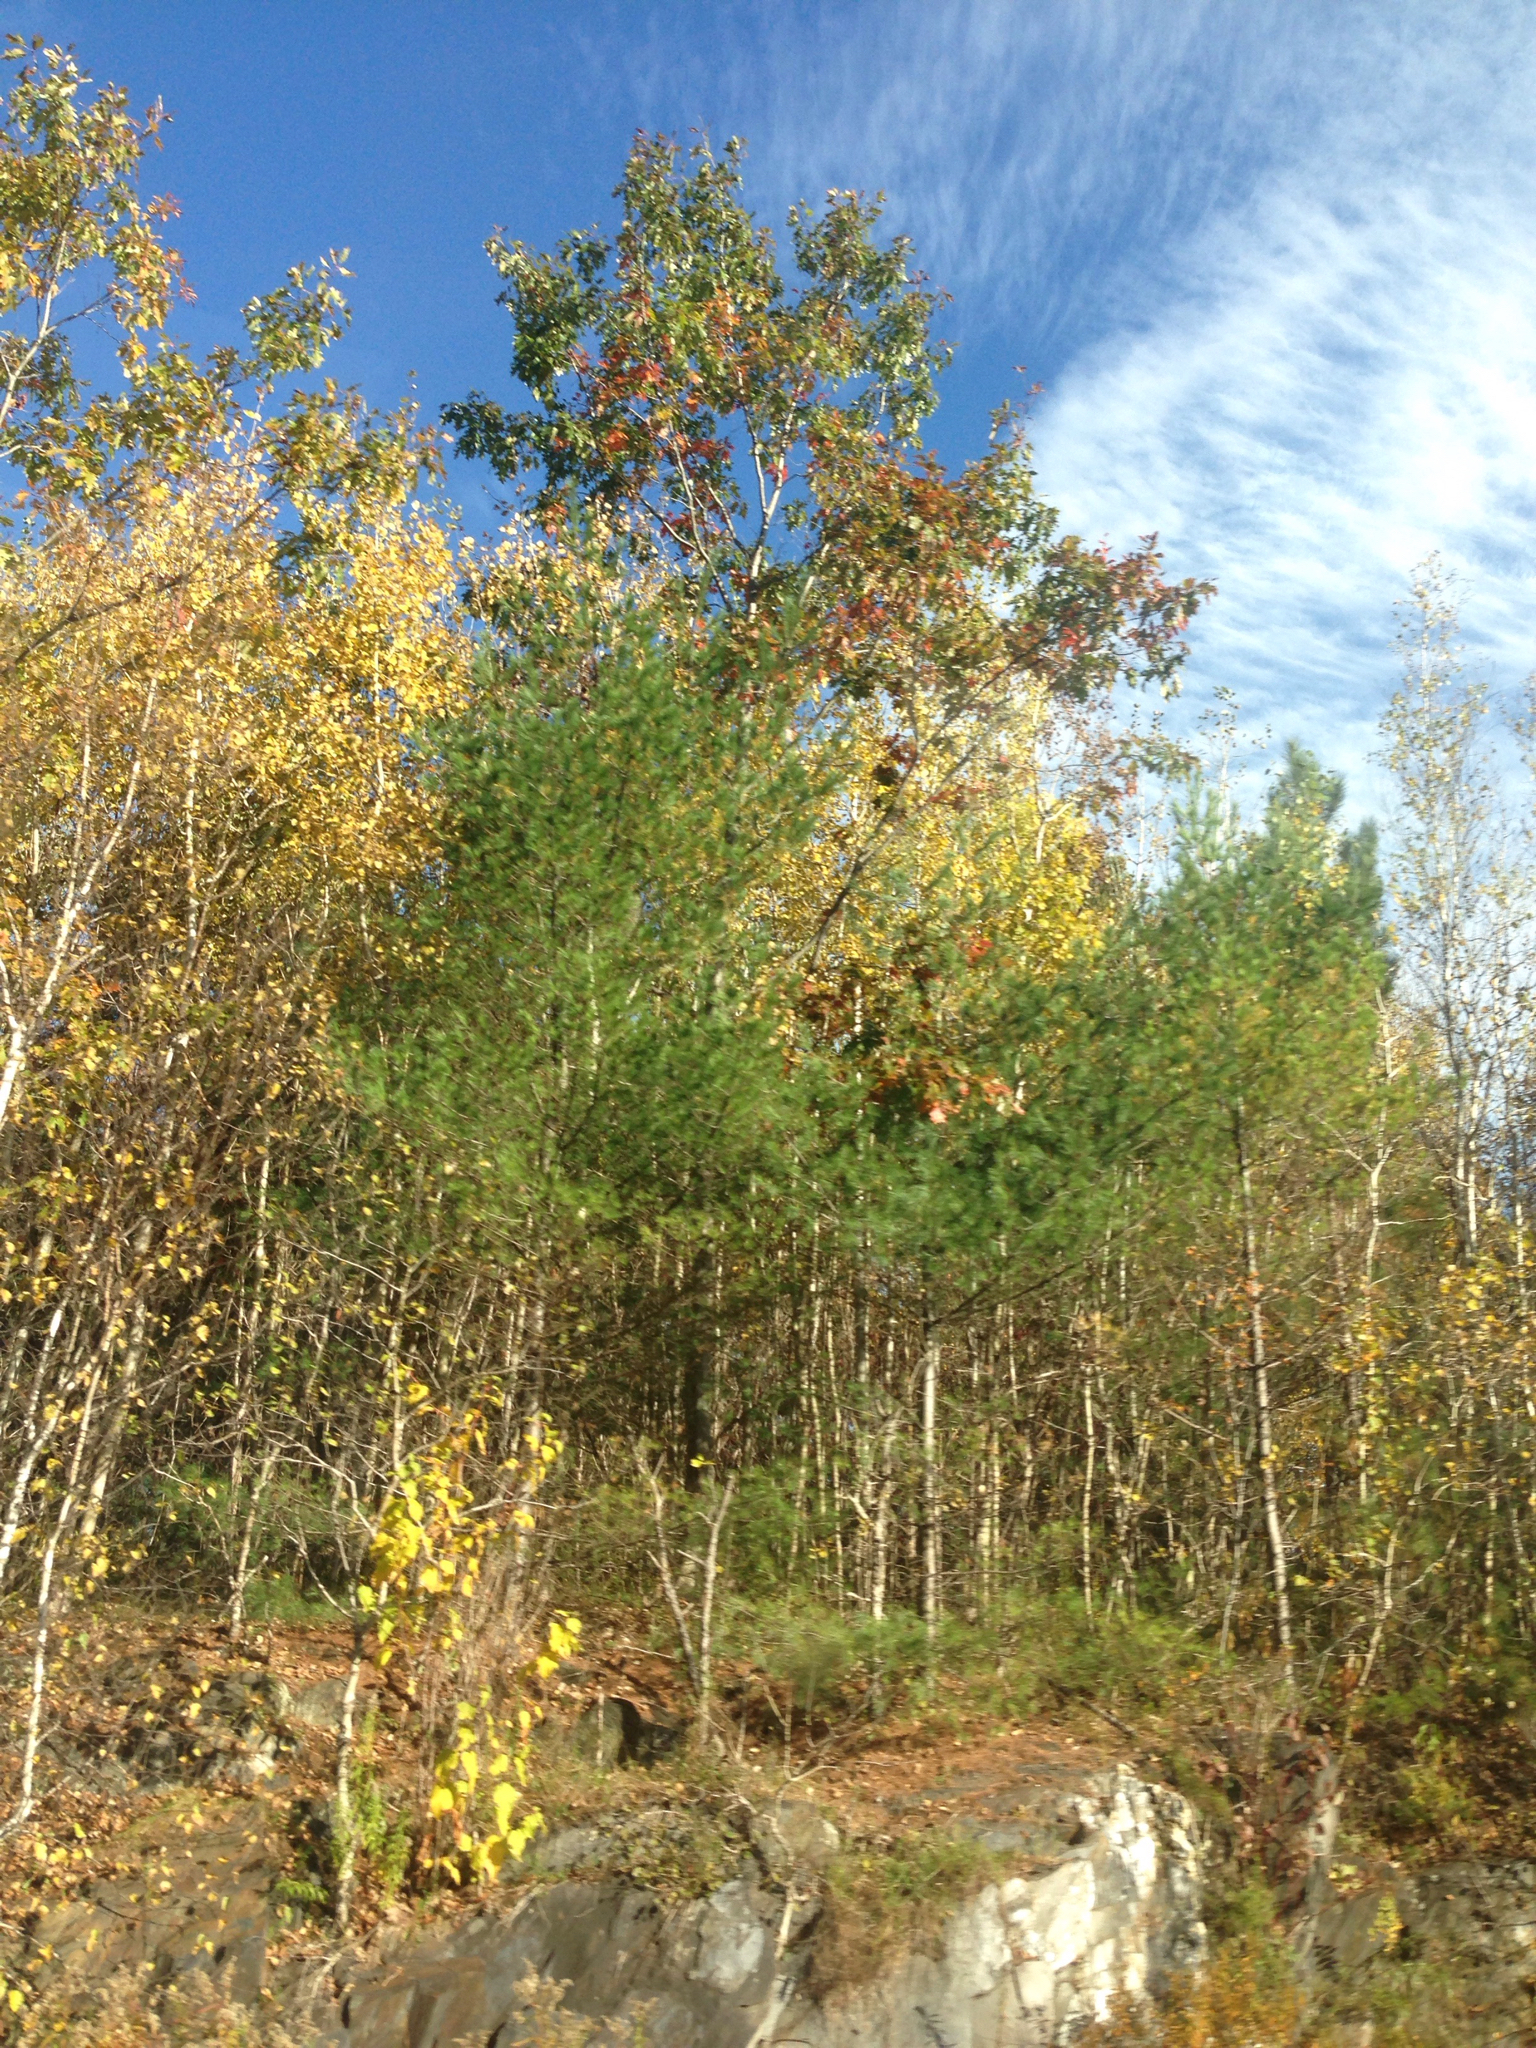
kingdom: Plantae
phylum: Tracheophyta
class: Magnoliopsida
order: Fagales
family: Fagaceae
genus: Quercus
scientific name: Quercus rubra
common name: Red oak
